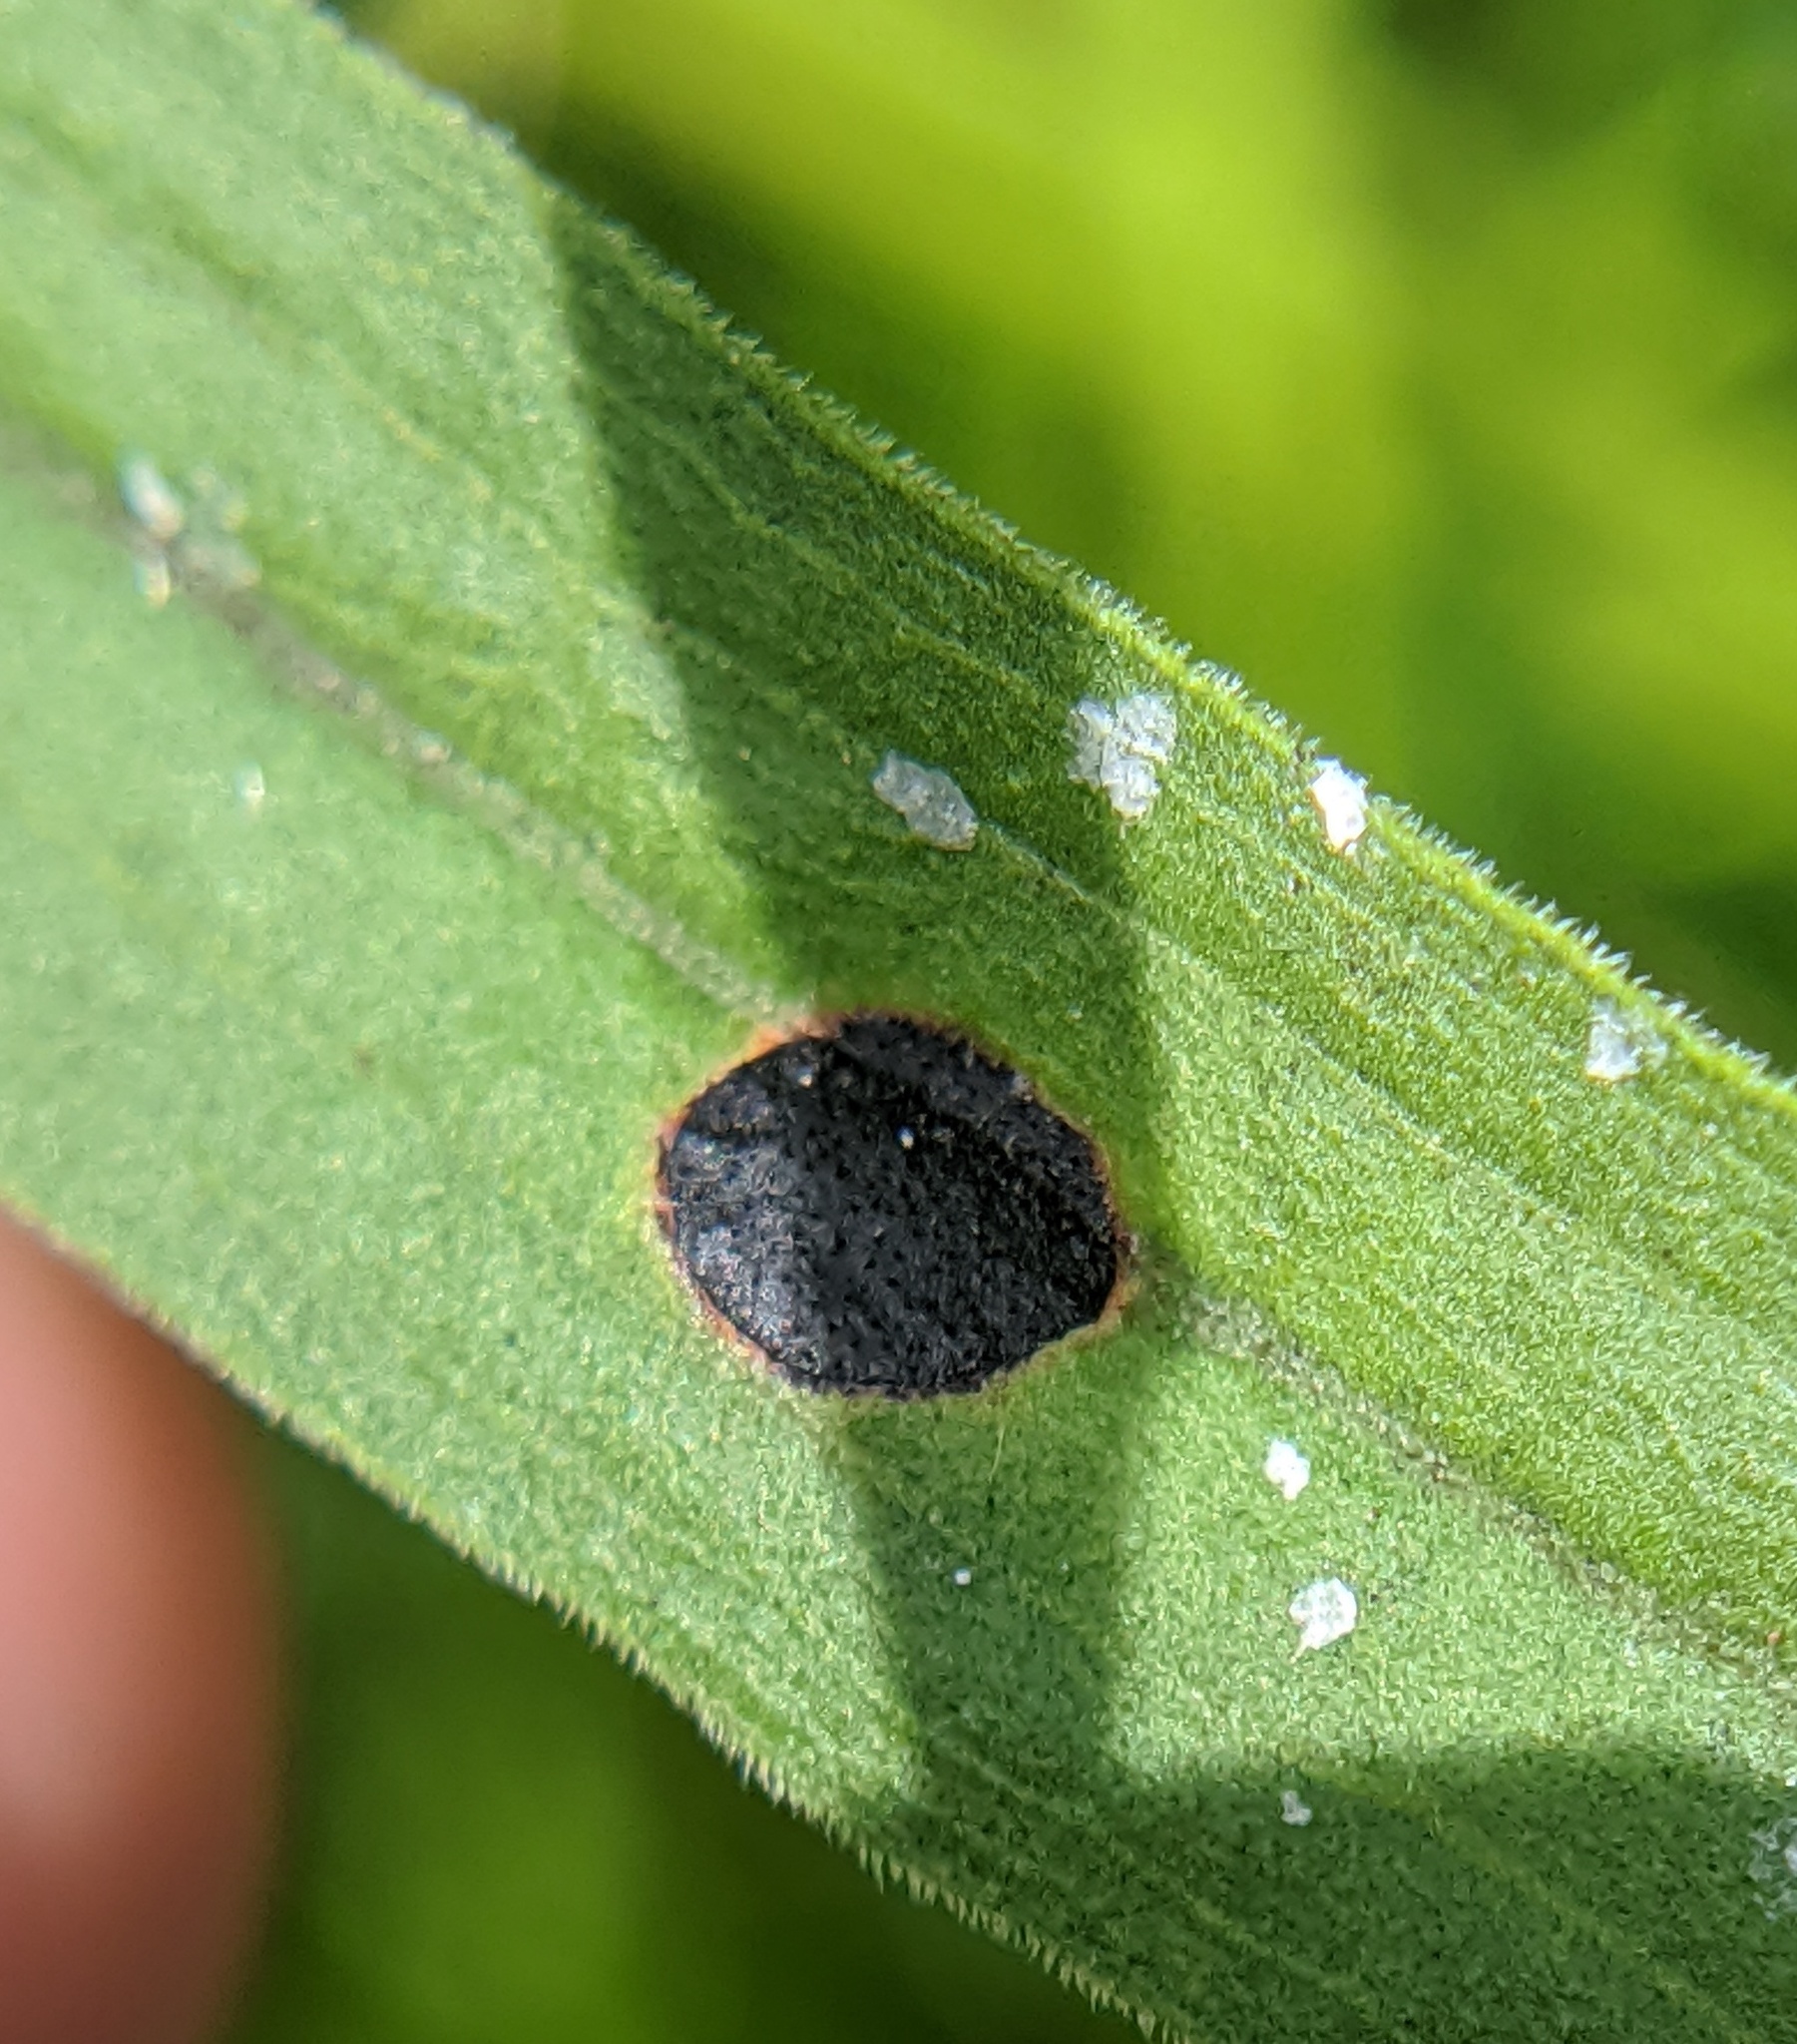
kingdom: Animalia
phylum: Arthropoda
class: Insecta
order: Diptera
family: Cecidomyiidae
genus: Asteromyia
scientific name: Asteromyia euthamiae
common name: Euthamia leaf gall midge
